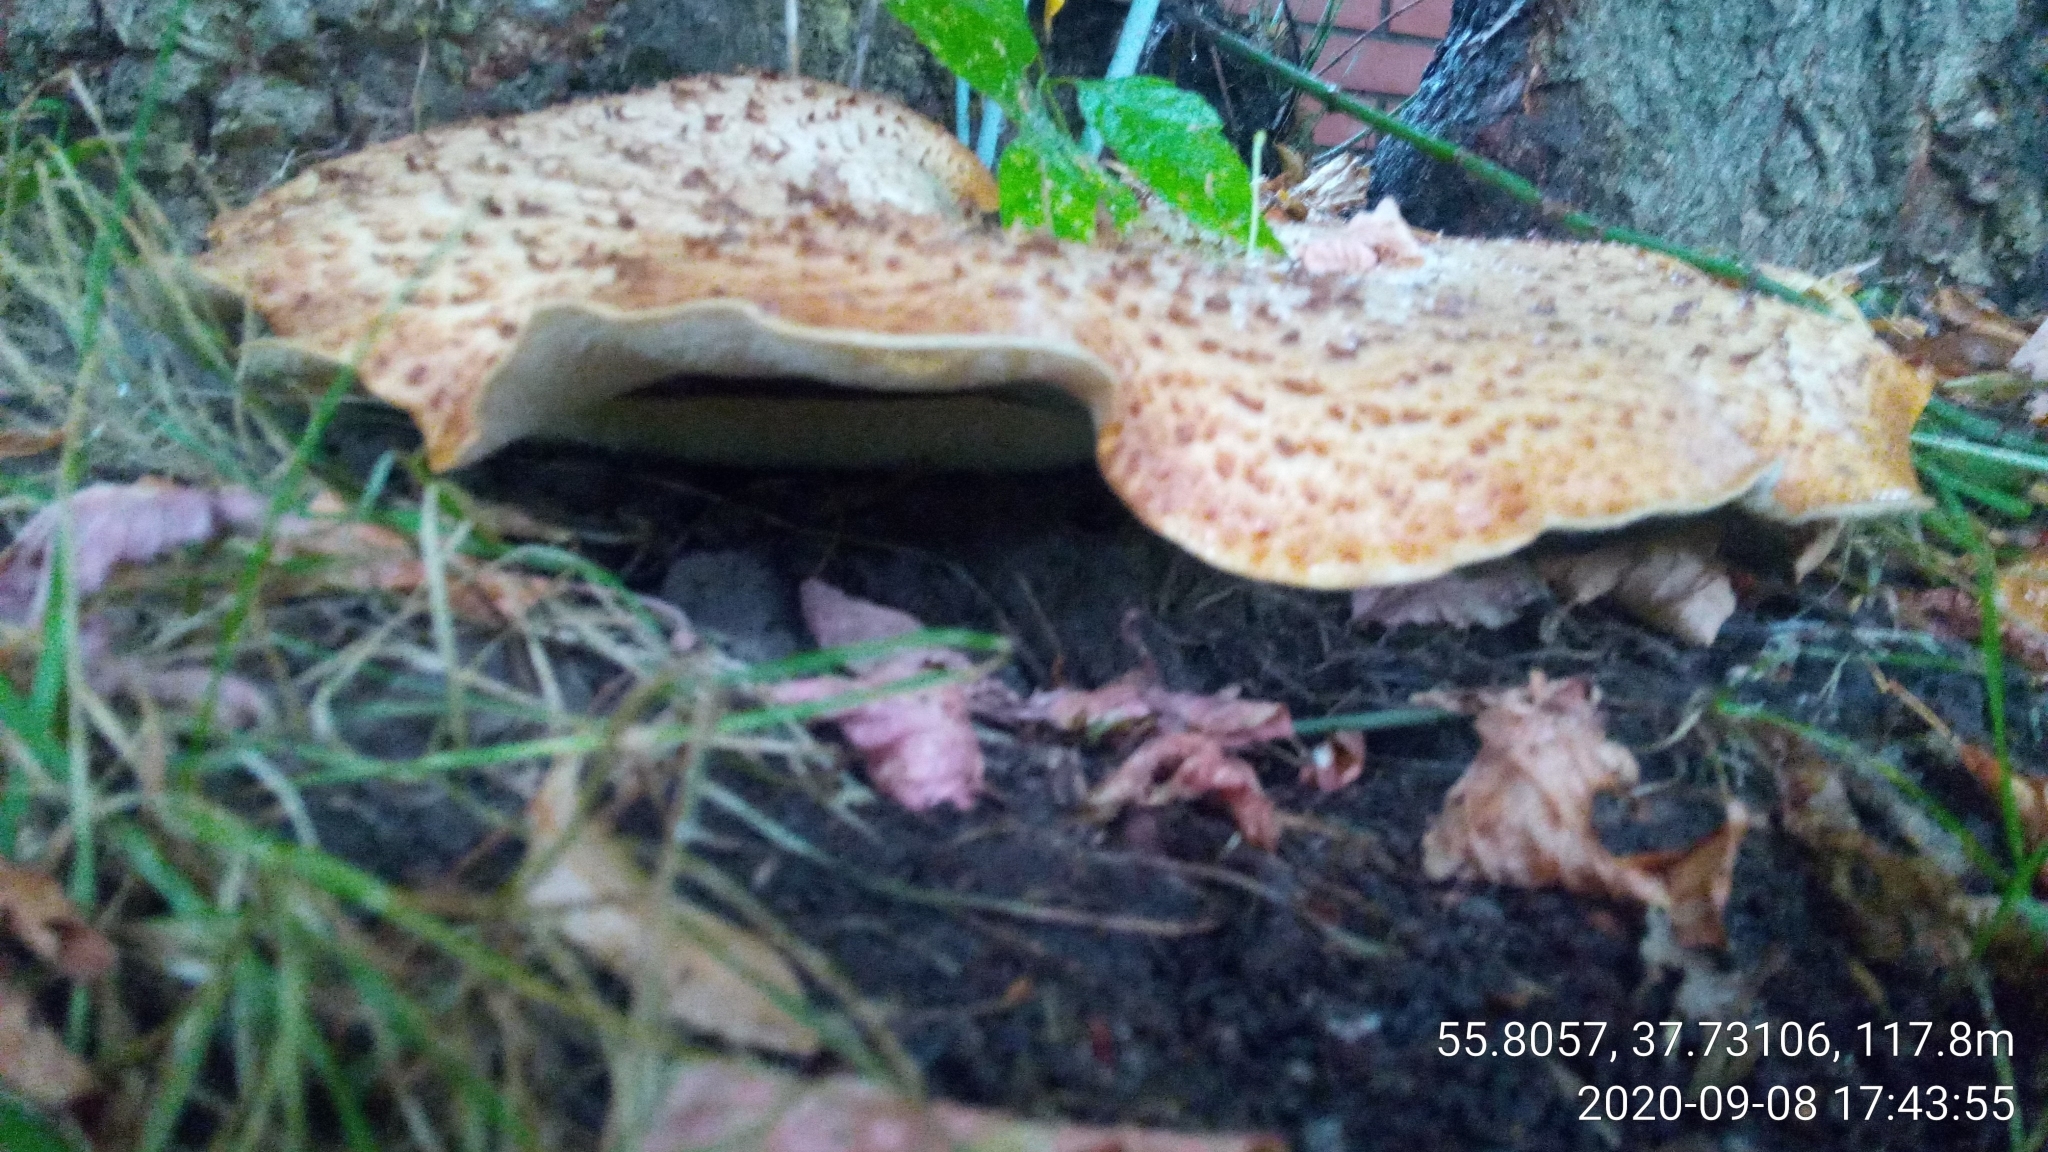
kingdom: Fungi
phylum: Basidiomycota
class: Agaricomycetes
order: Polyporales
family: Polyporaceae
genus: Cerioporus
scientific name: Cerioporus squamosus
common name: Dryad's saddle
